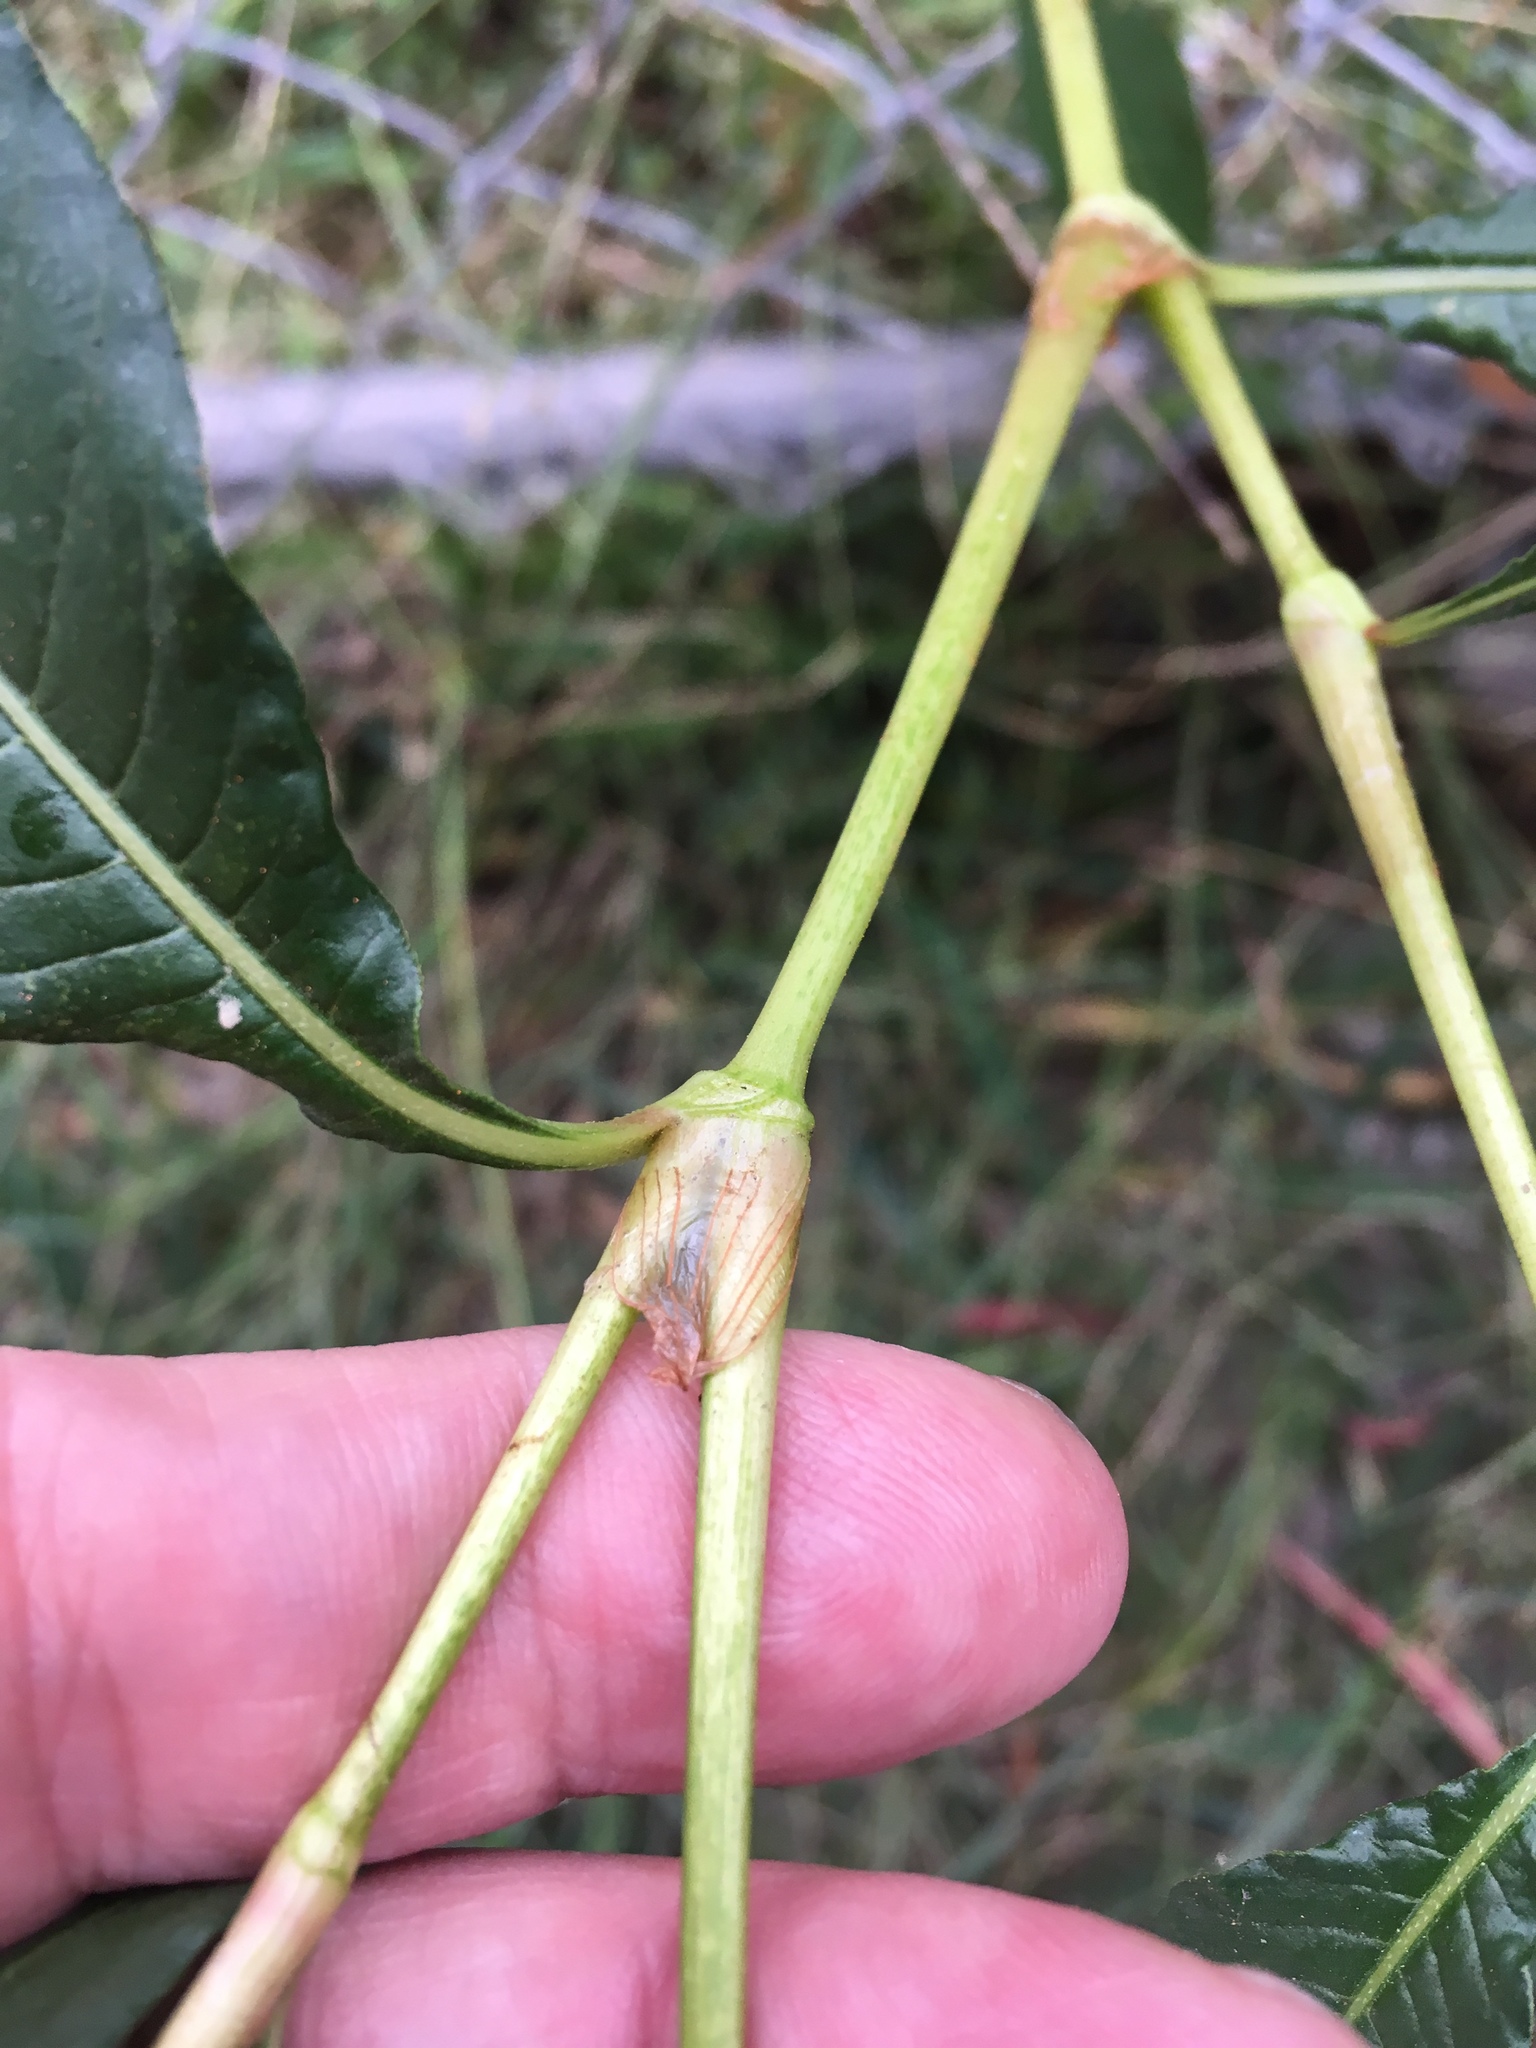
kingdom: Plantae
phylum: Tracheophyta
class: Magnoliopsida
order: Caryophyllales
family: Polygonaceae
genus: Persicaria
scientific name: Persicaria lapathifolia
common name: Curlytop knotweed
